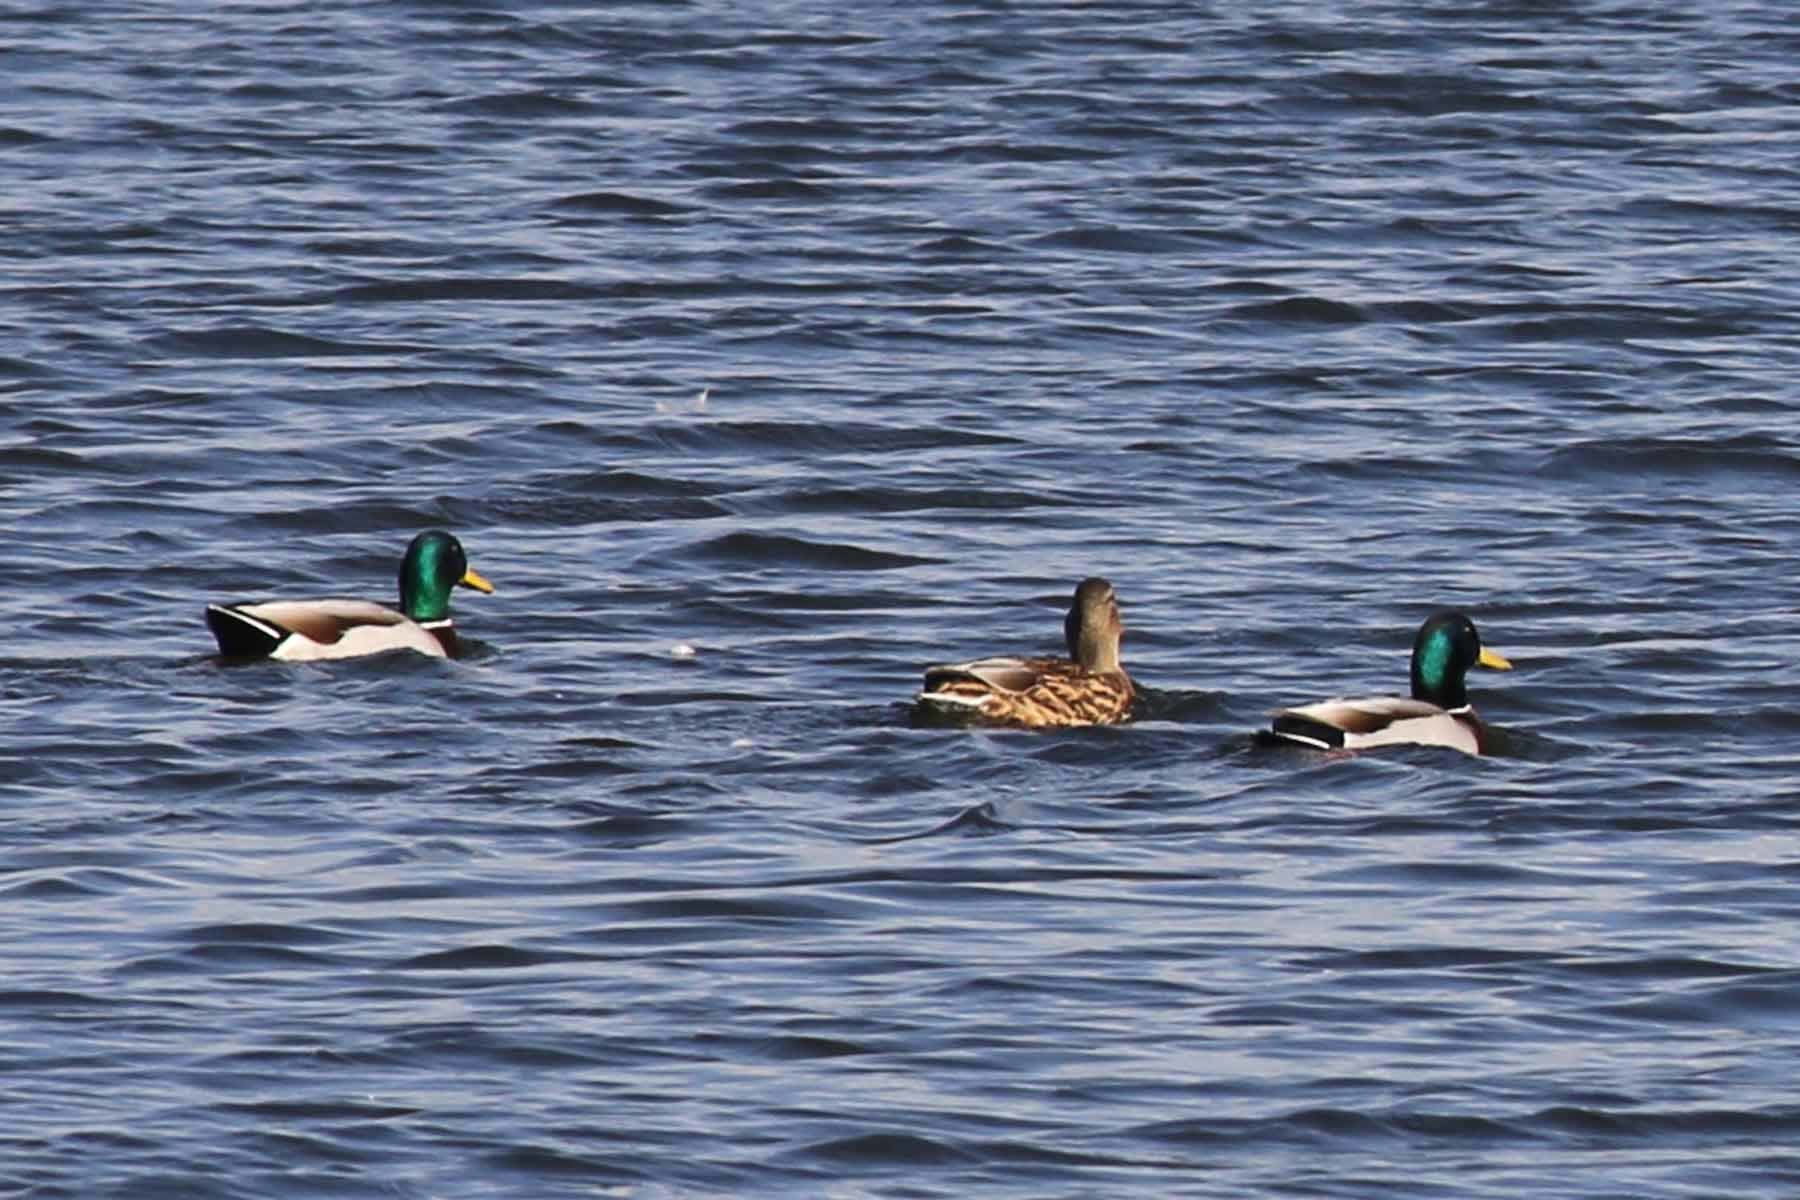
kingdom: Animalia
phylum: Chordata
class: Aves
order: Anseriformes
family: Anatidae
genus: Anas
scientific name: Anas platyrhynchos
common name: Mallard
